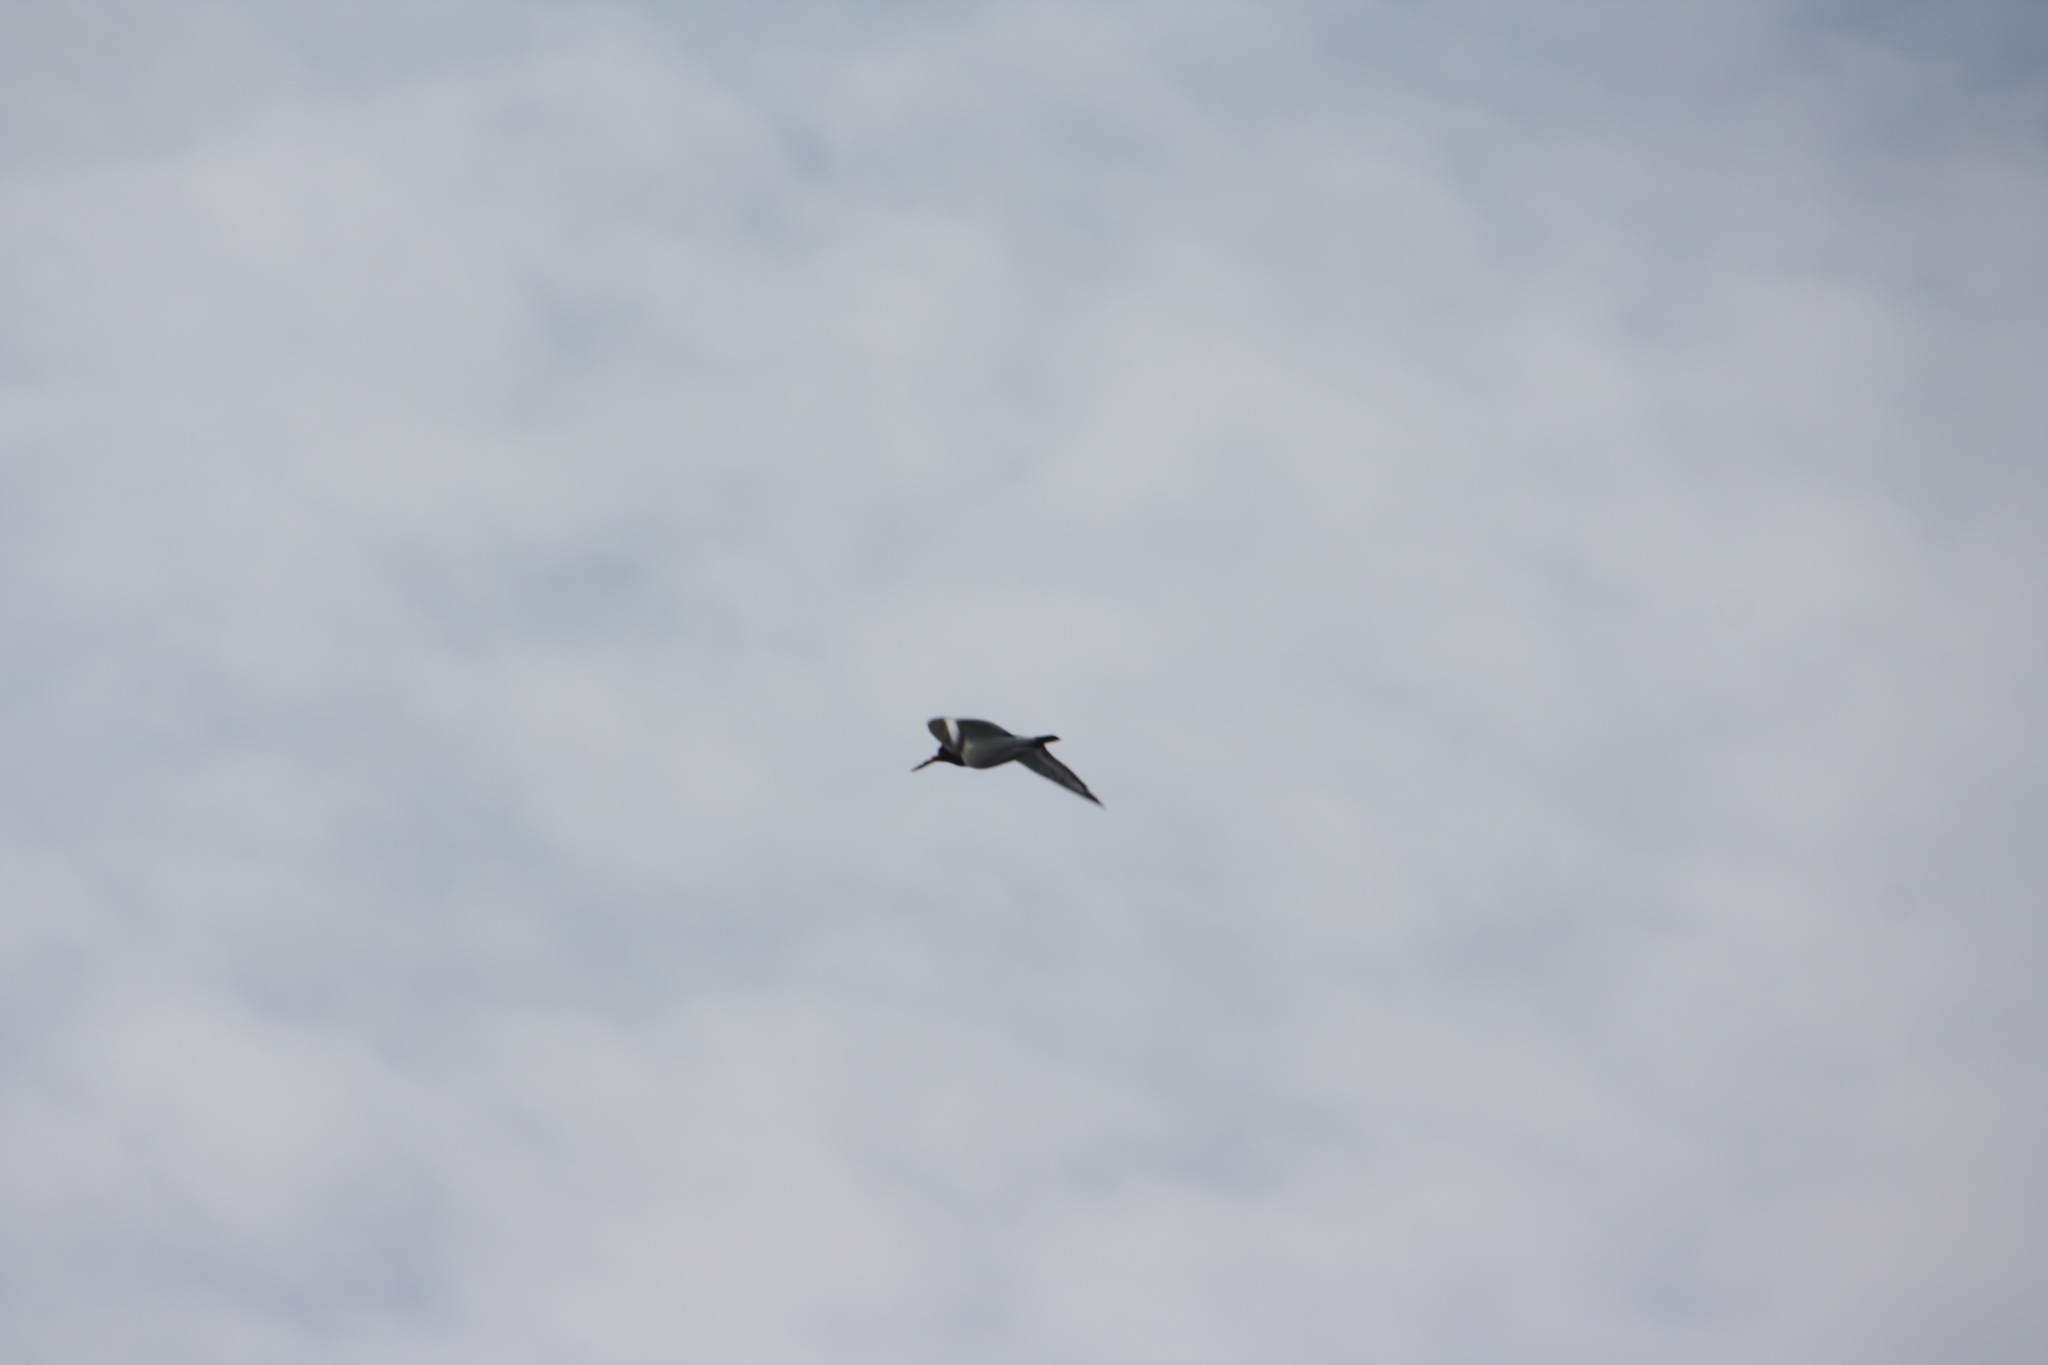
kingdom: Animalia
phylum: Chordata
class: Aves
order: Charadriiformes
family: Haematopodidae
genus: Haematopus
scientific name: Haematopus ostralegus
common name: Eurasian oystercatcher
